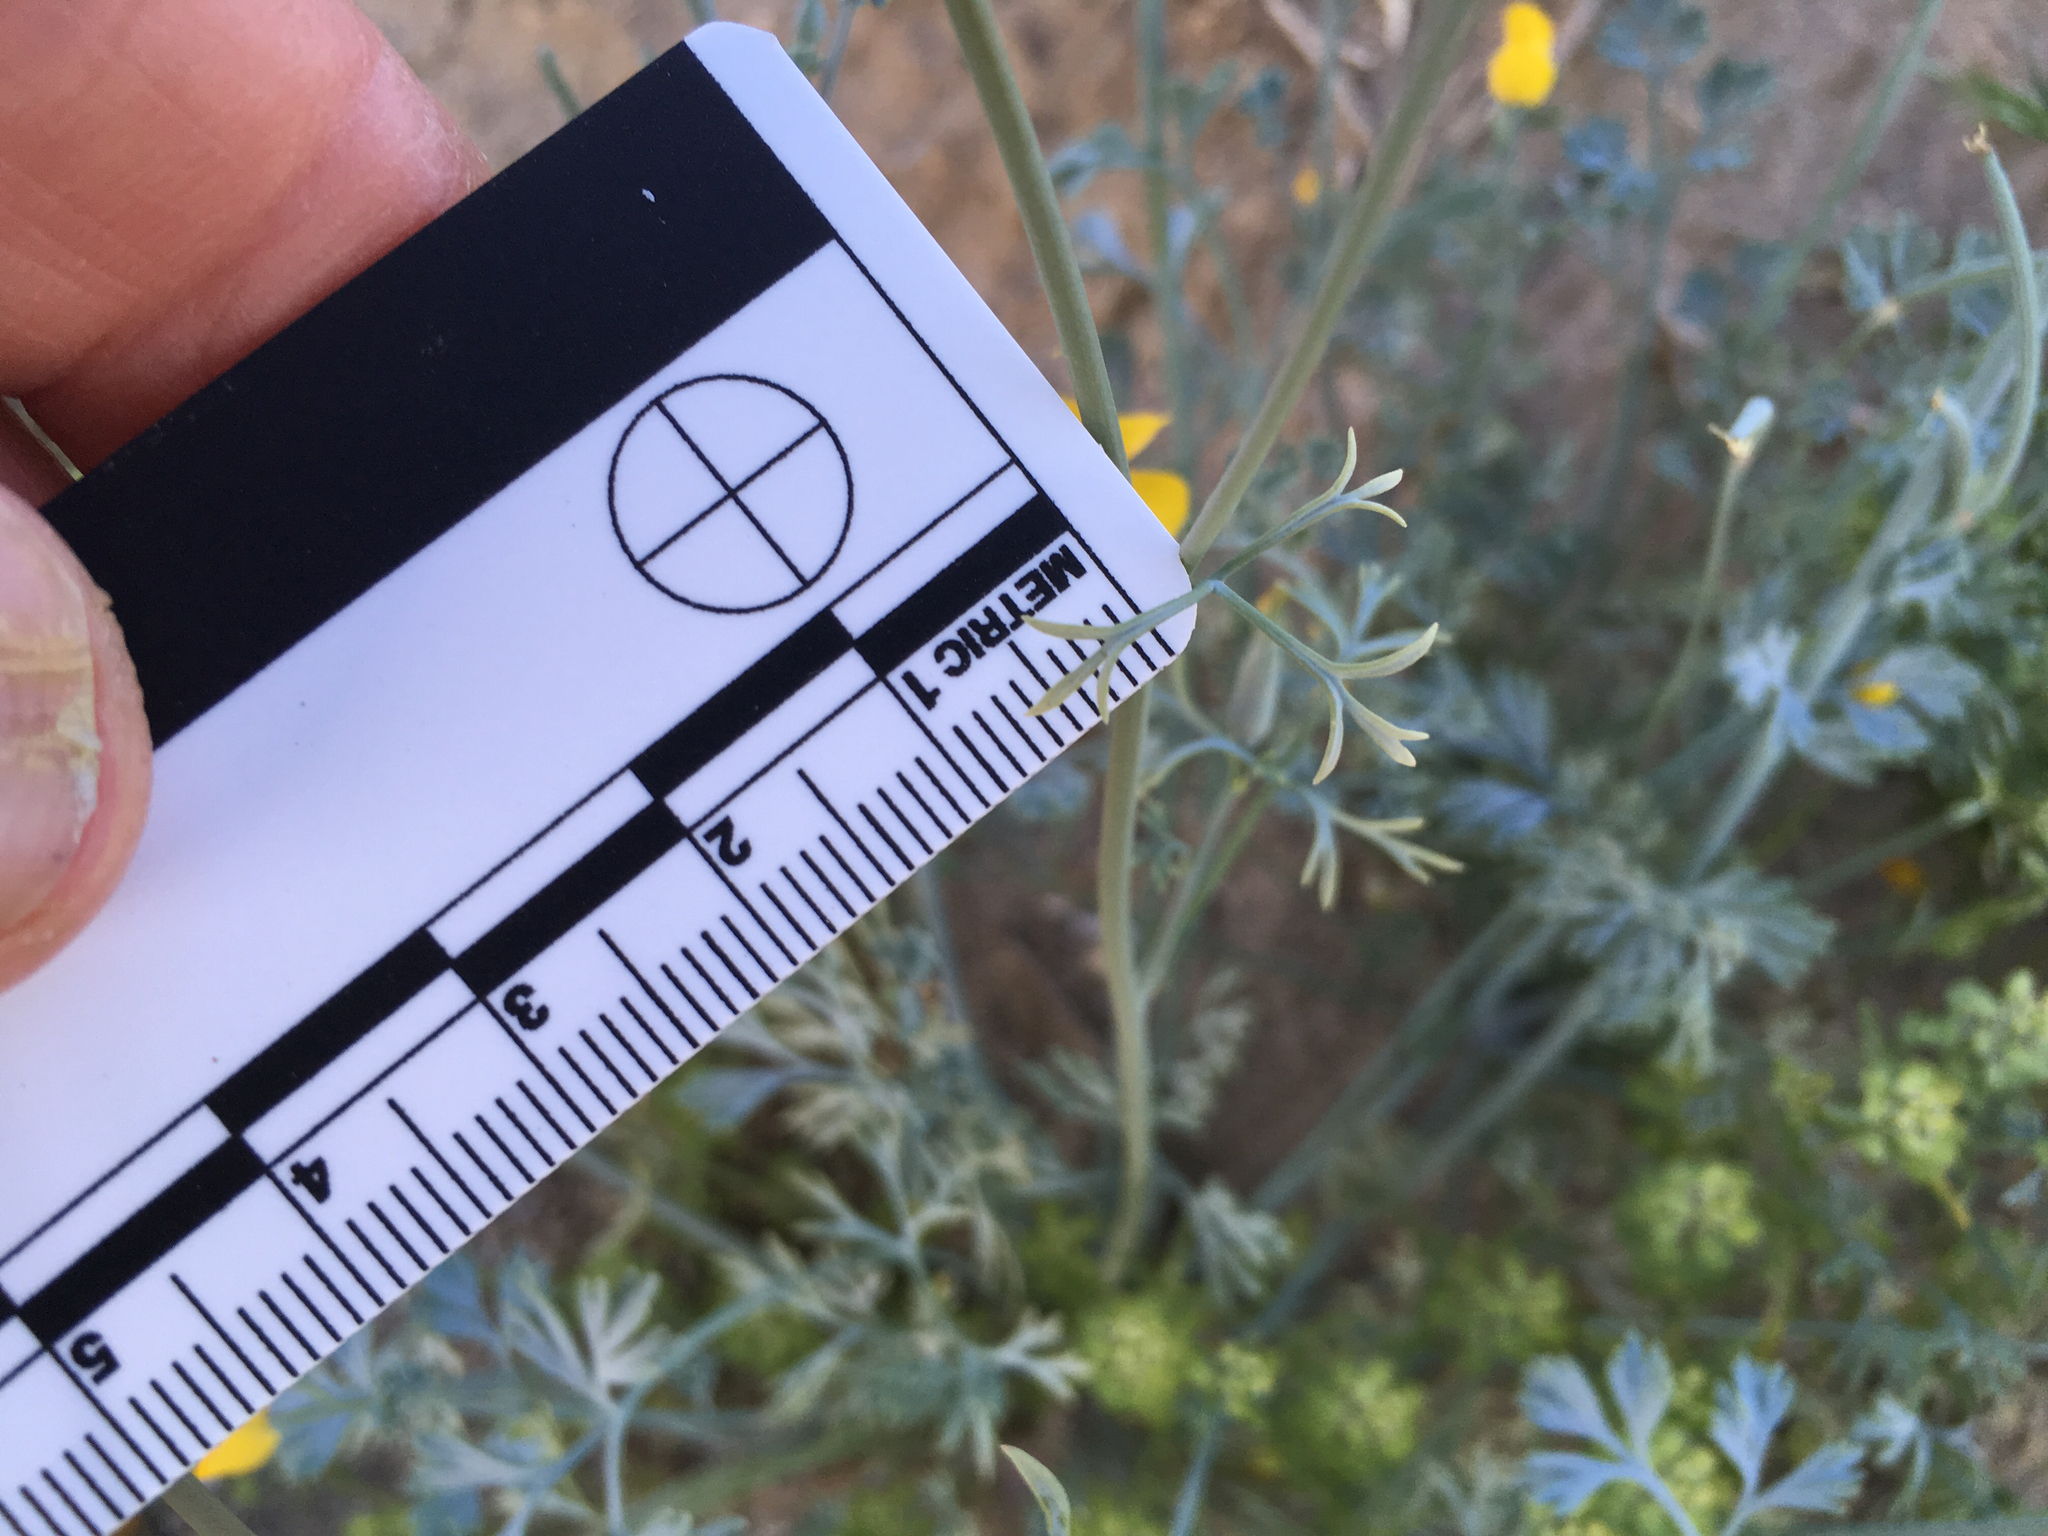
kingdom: Plantae
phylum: Tracheophyta
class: Magnoliopsida
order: Ranunculales
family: Papaveraceae
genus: Eschscholzia
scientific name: Eschscholzia parishii
